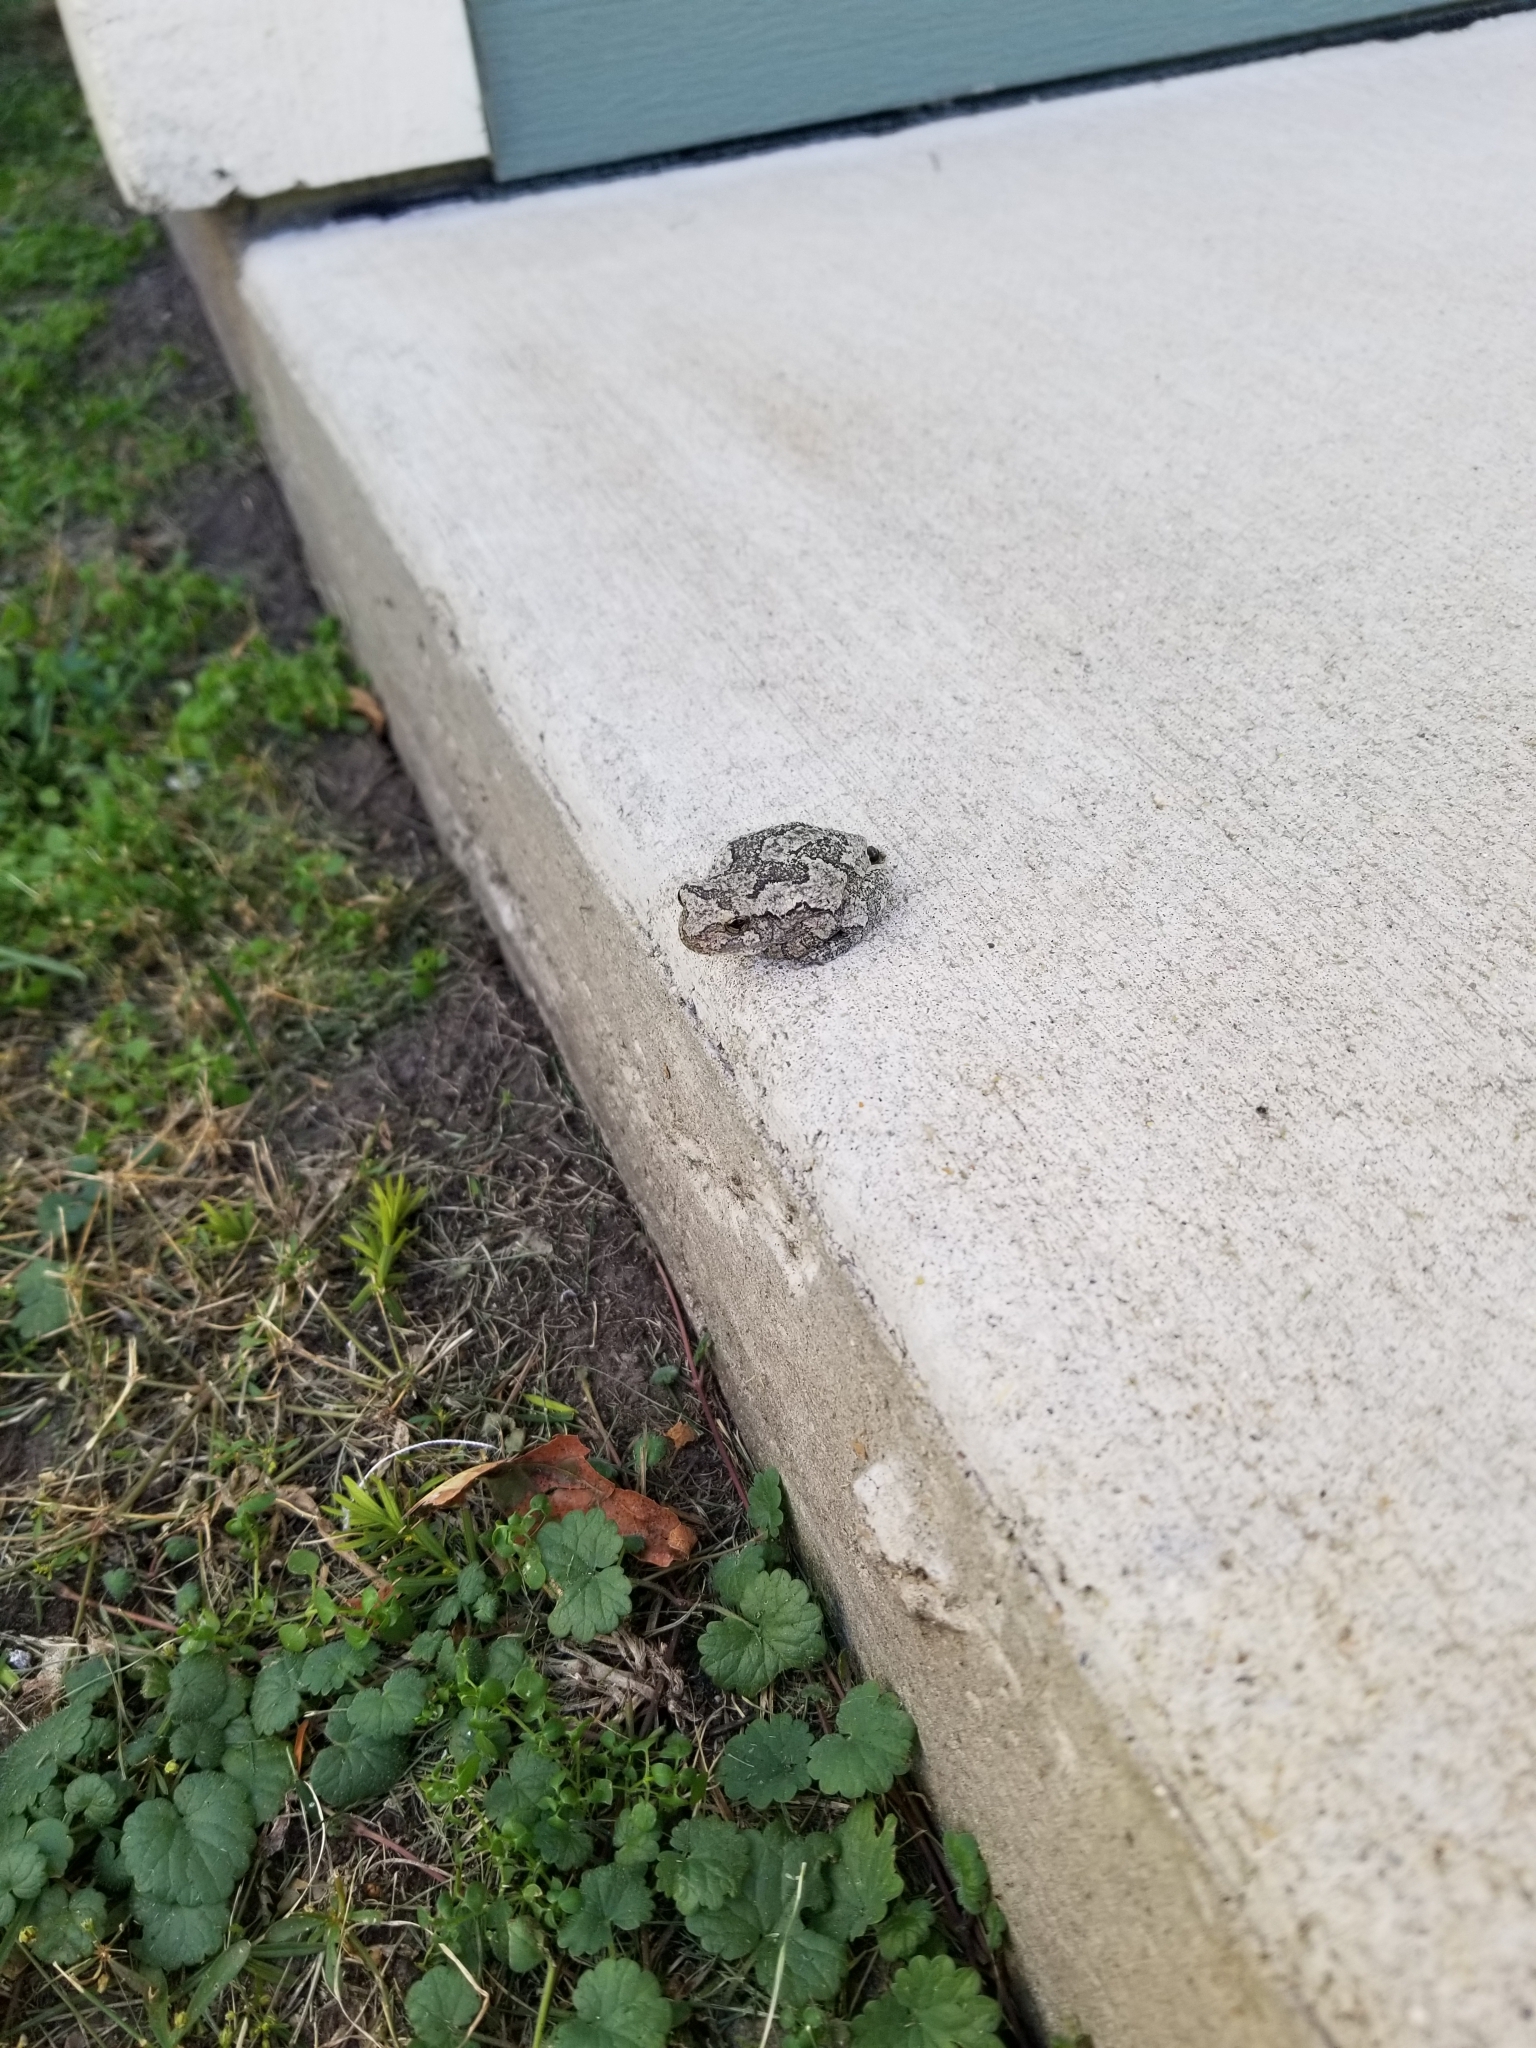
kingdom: Animalia
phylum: Chordata
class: Amphibia
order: Anura
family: Hylidae
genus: Hyla
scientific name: Hyla
